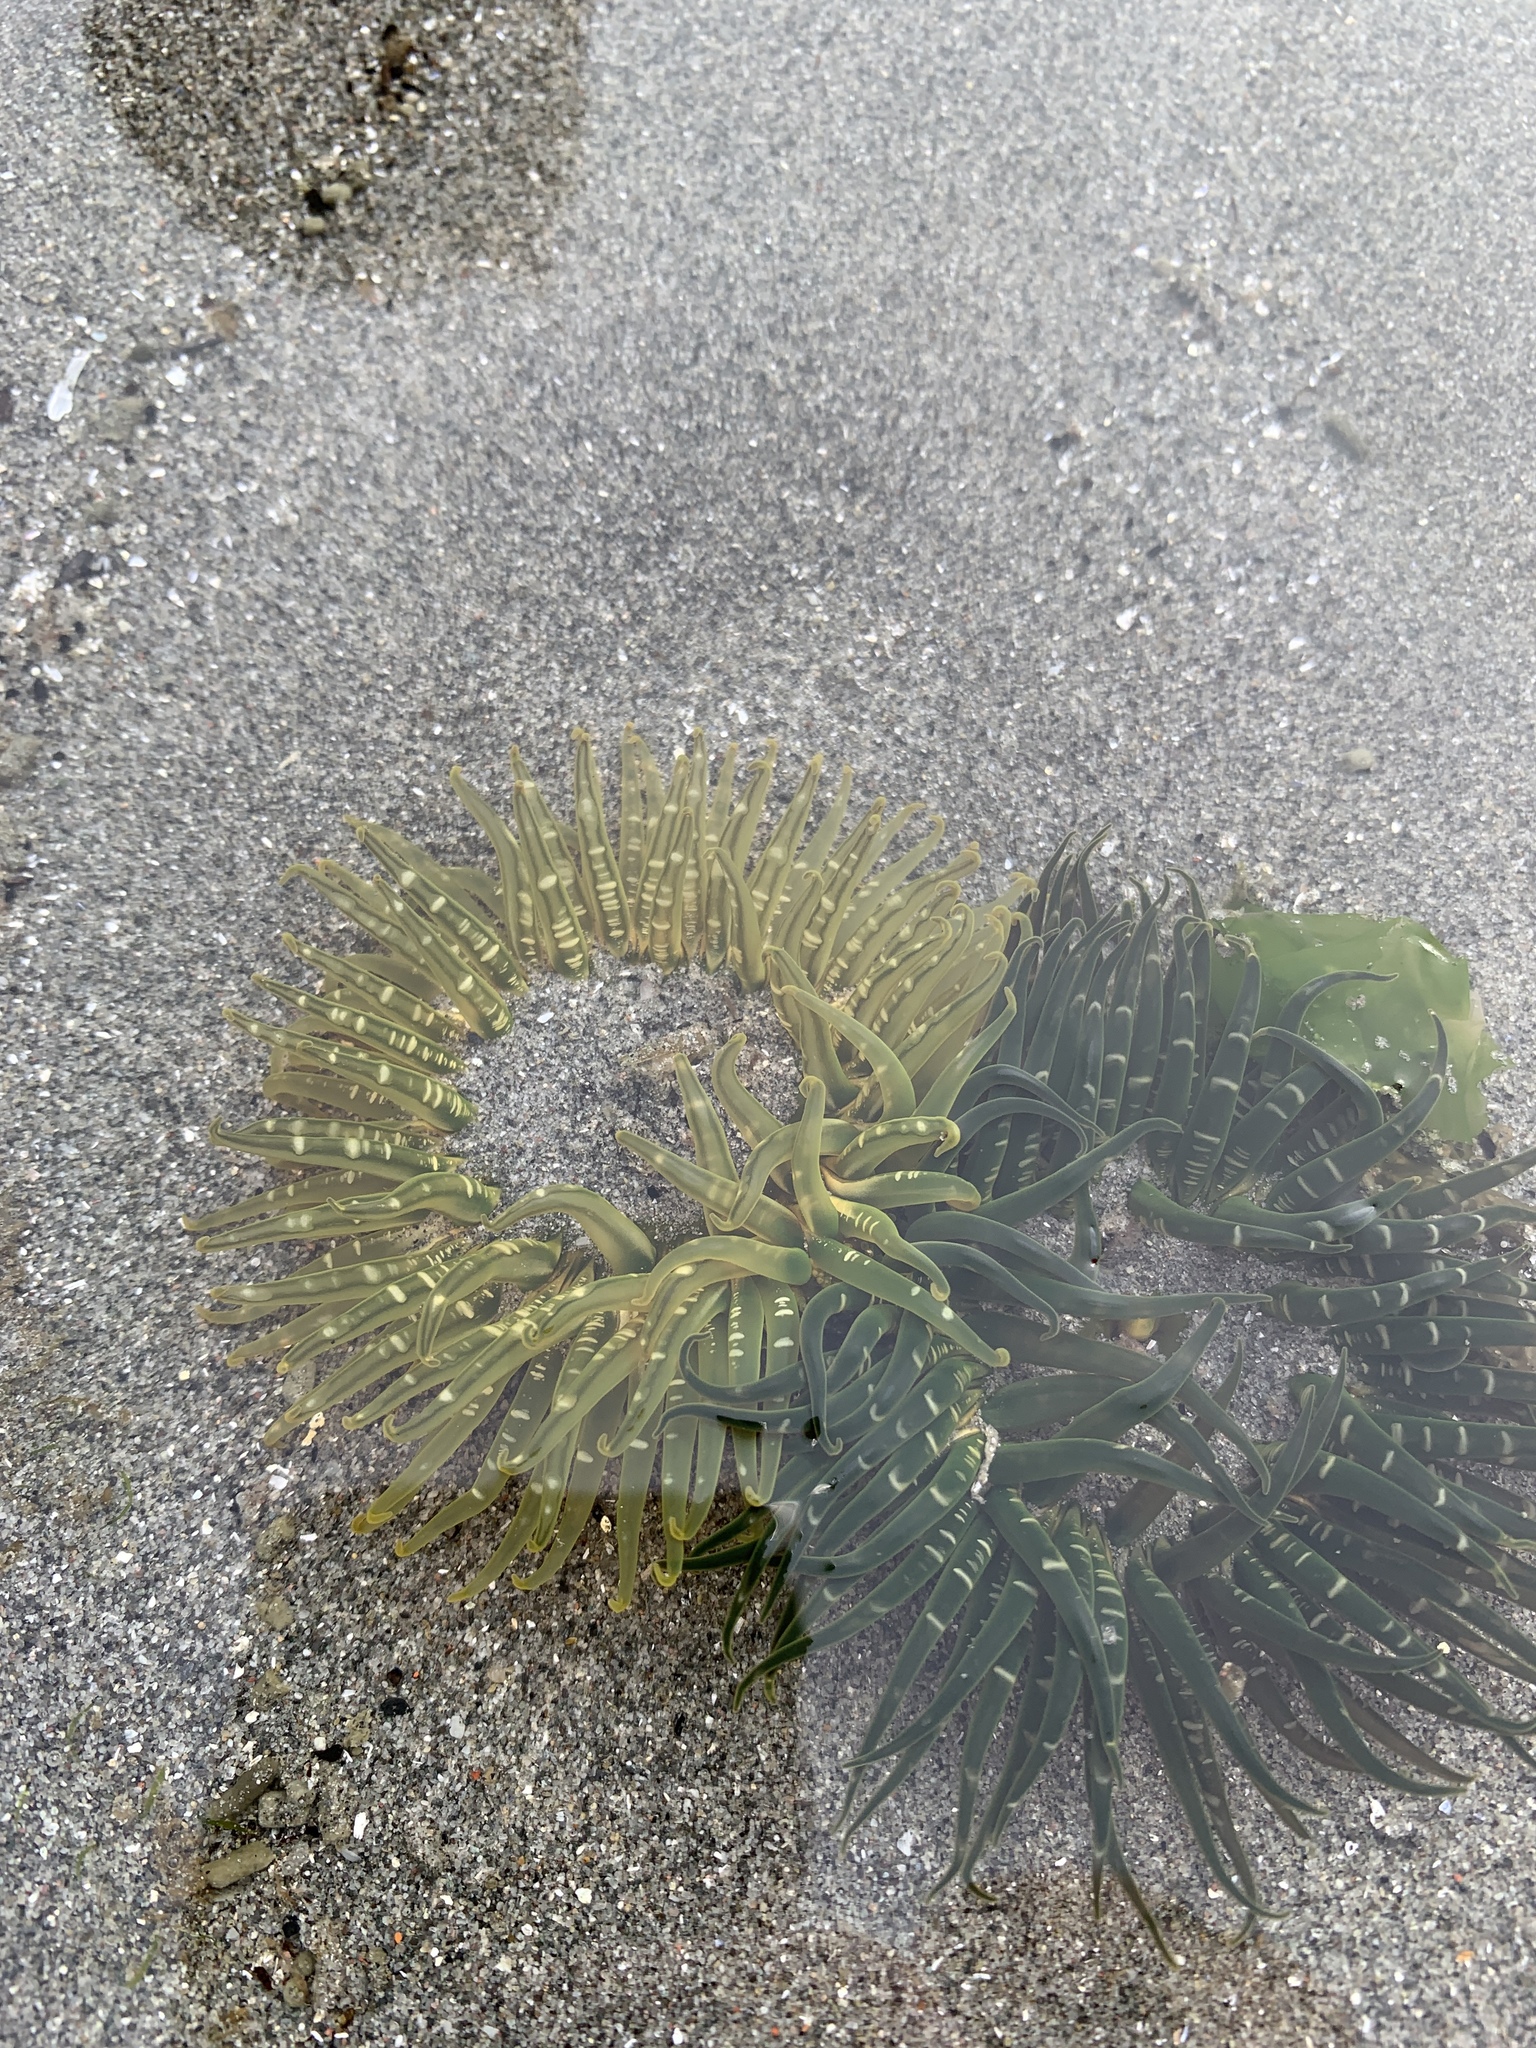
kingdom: Animalia
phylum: Cnidaria
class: Anthozoa
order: Actiniaria
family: Actiniidae
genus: Anthopleura
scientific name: Anthopleura artemisia
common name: Buried sea anemone
